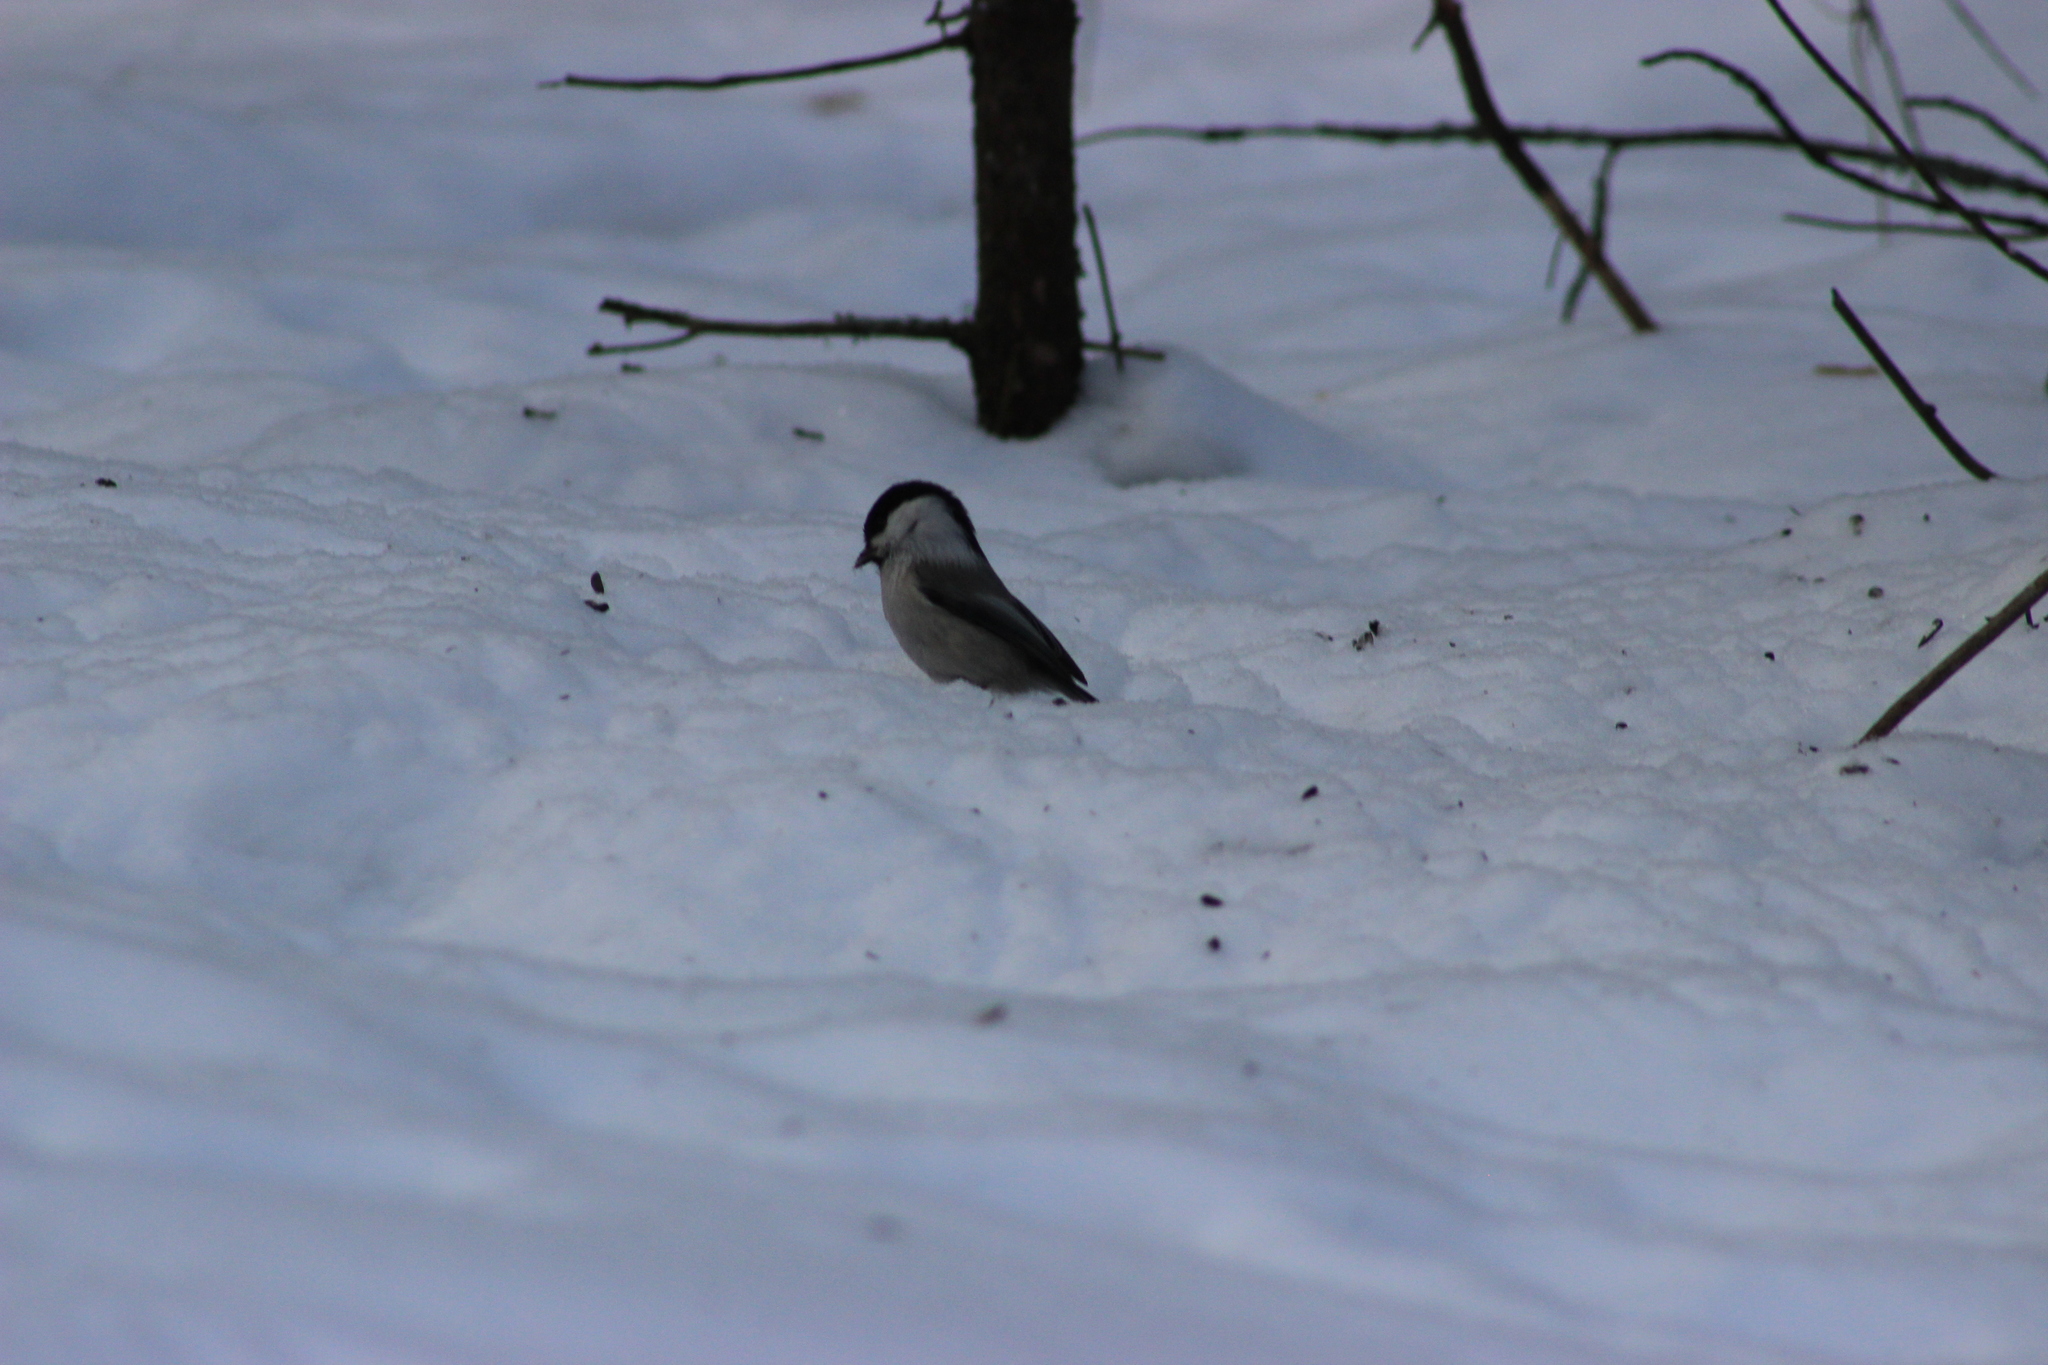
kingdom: Animalia
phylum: Chordata
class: Aves
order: Passeriformes
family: Paridae
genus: Poecile
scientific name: Poecile montanus
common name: Willow tit
